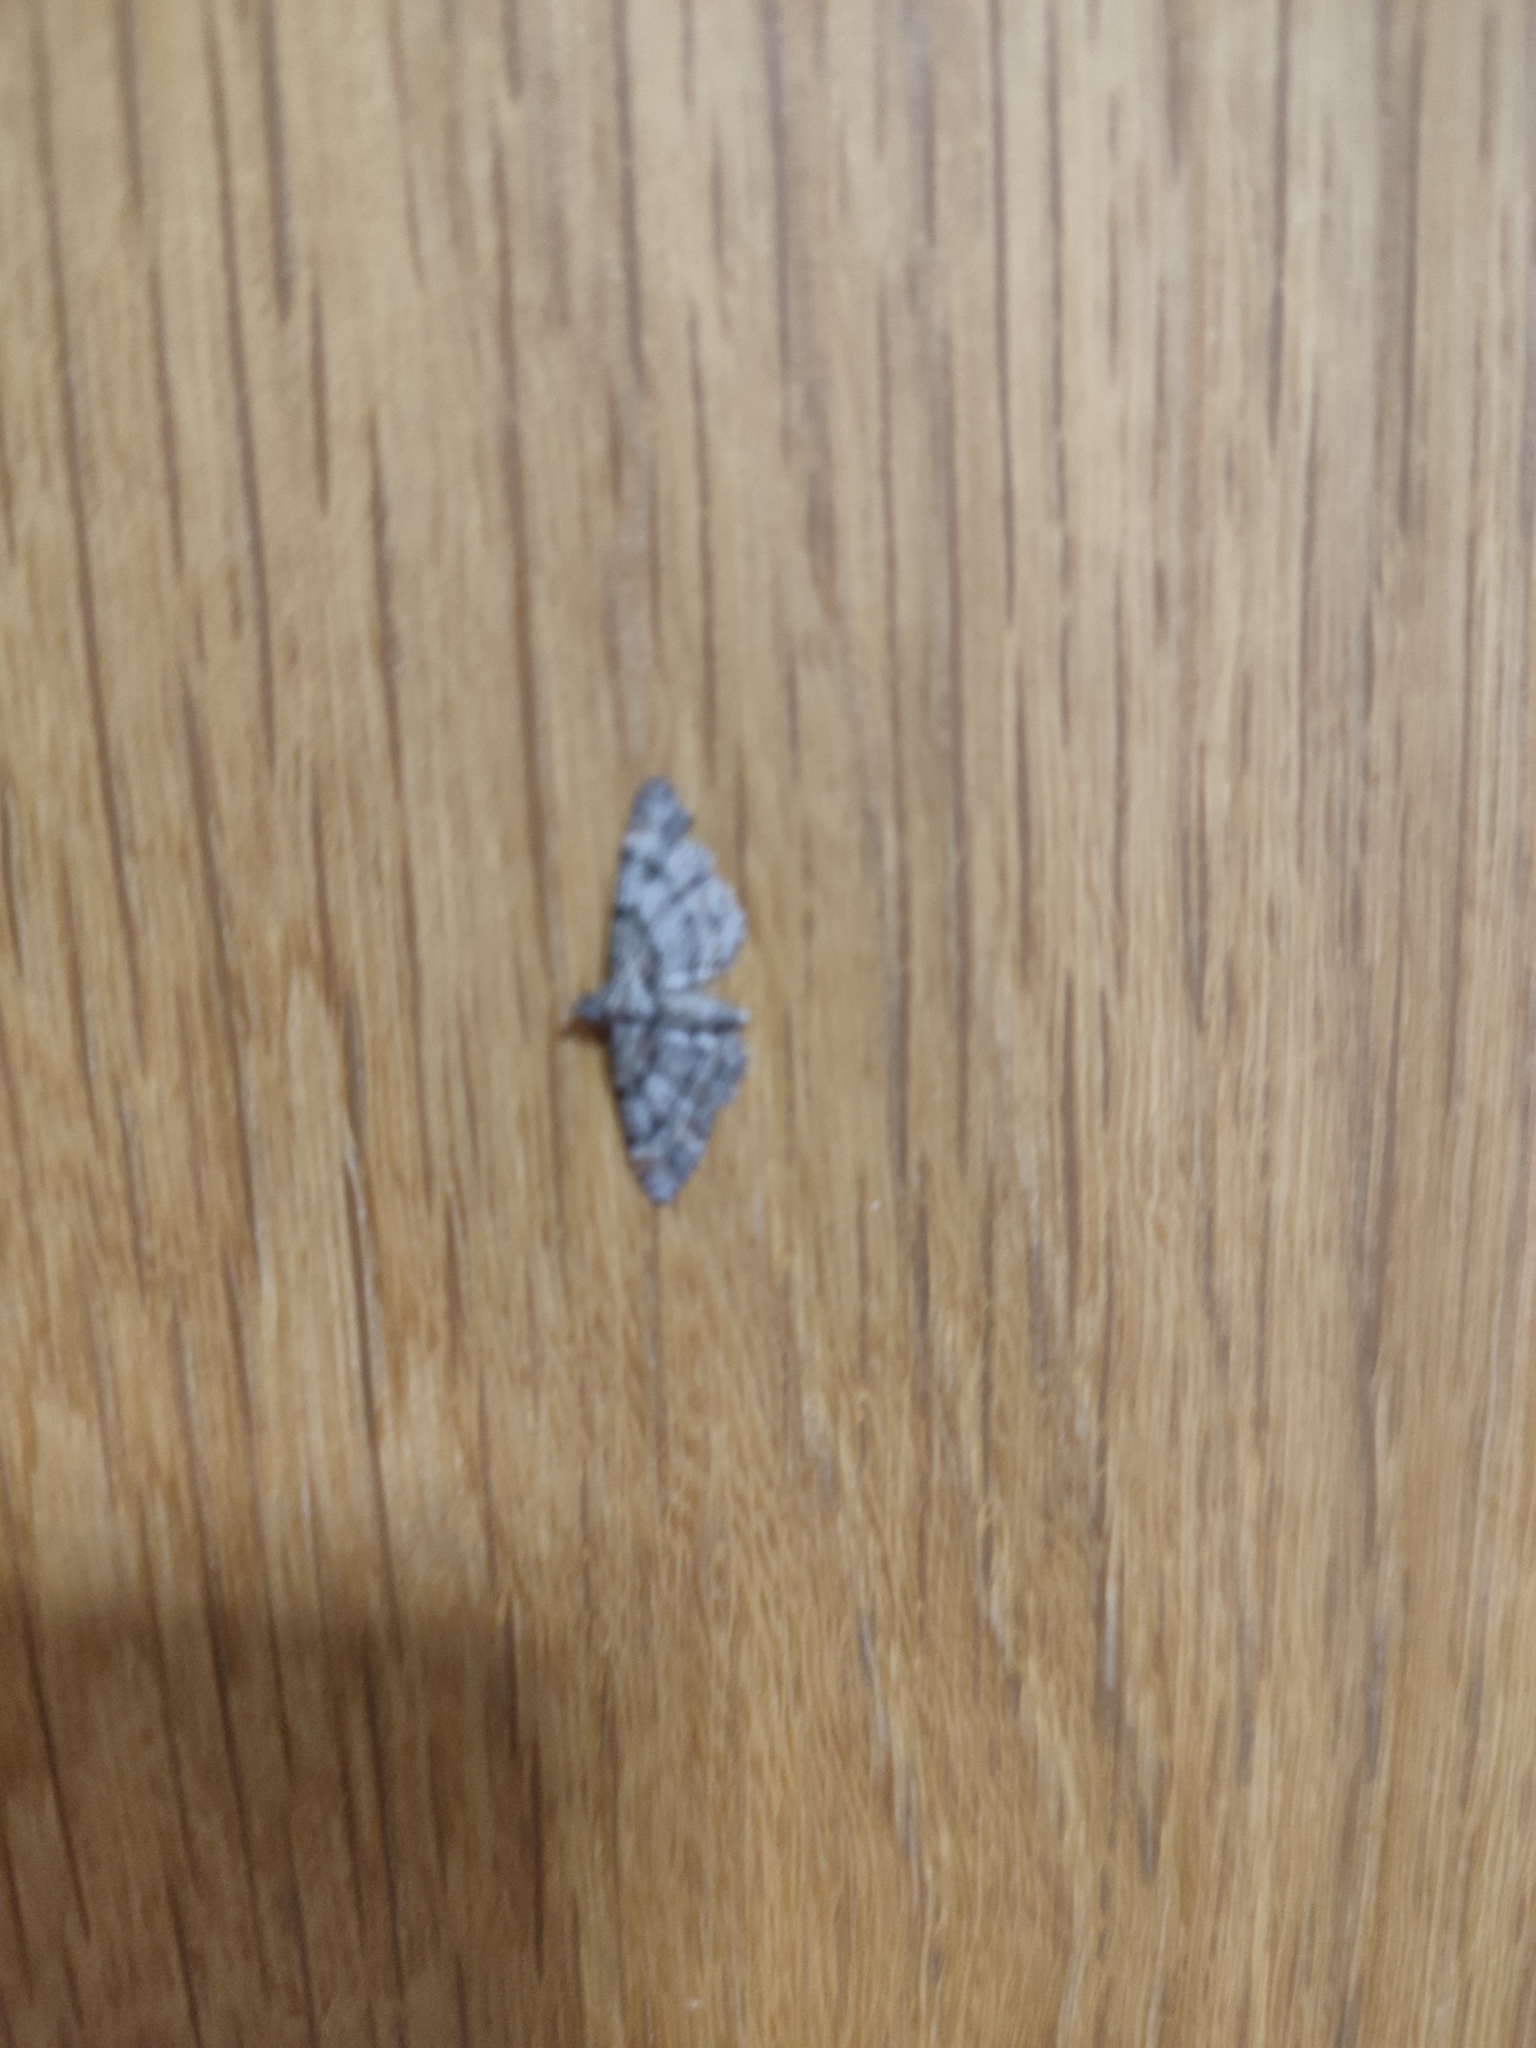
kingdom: Animalia
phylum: Arthropoda
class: Insecta
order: Lepidoptera
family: Geometridae
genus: Gymnoscelis
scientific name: Gymnoscelis rufifasciata
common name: Double-striped pug
